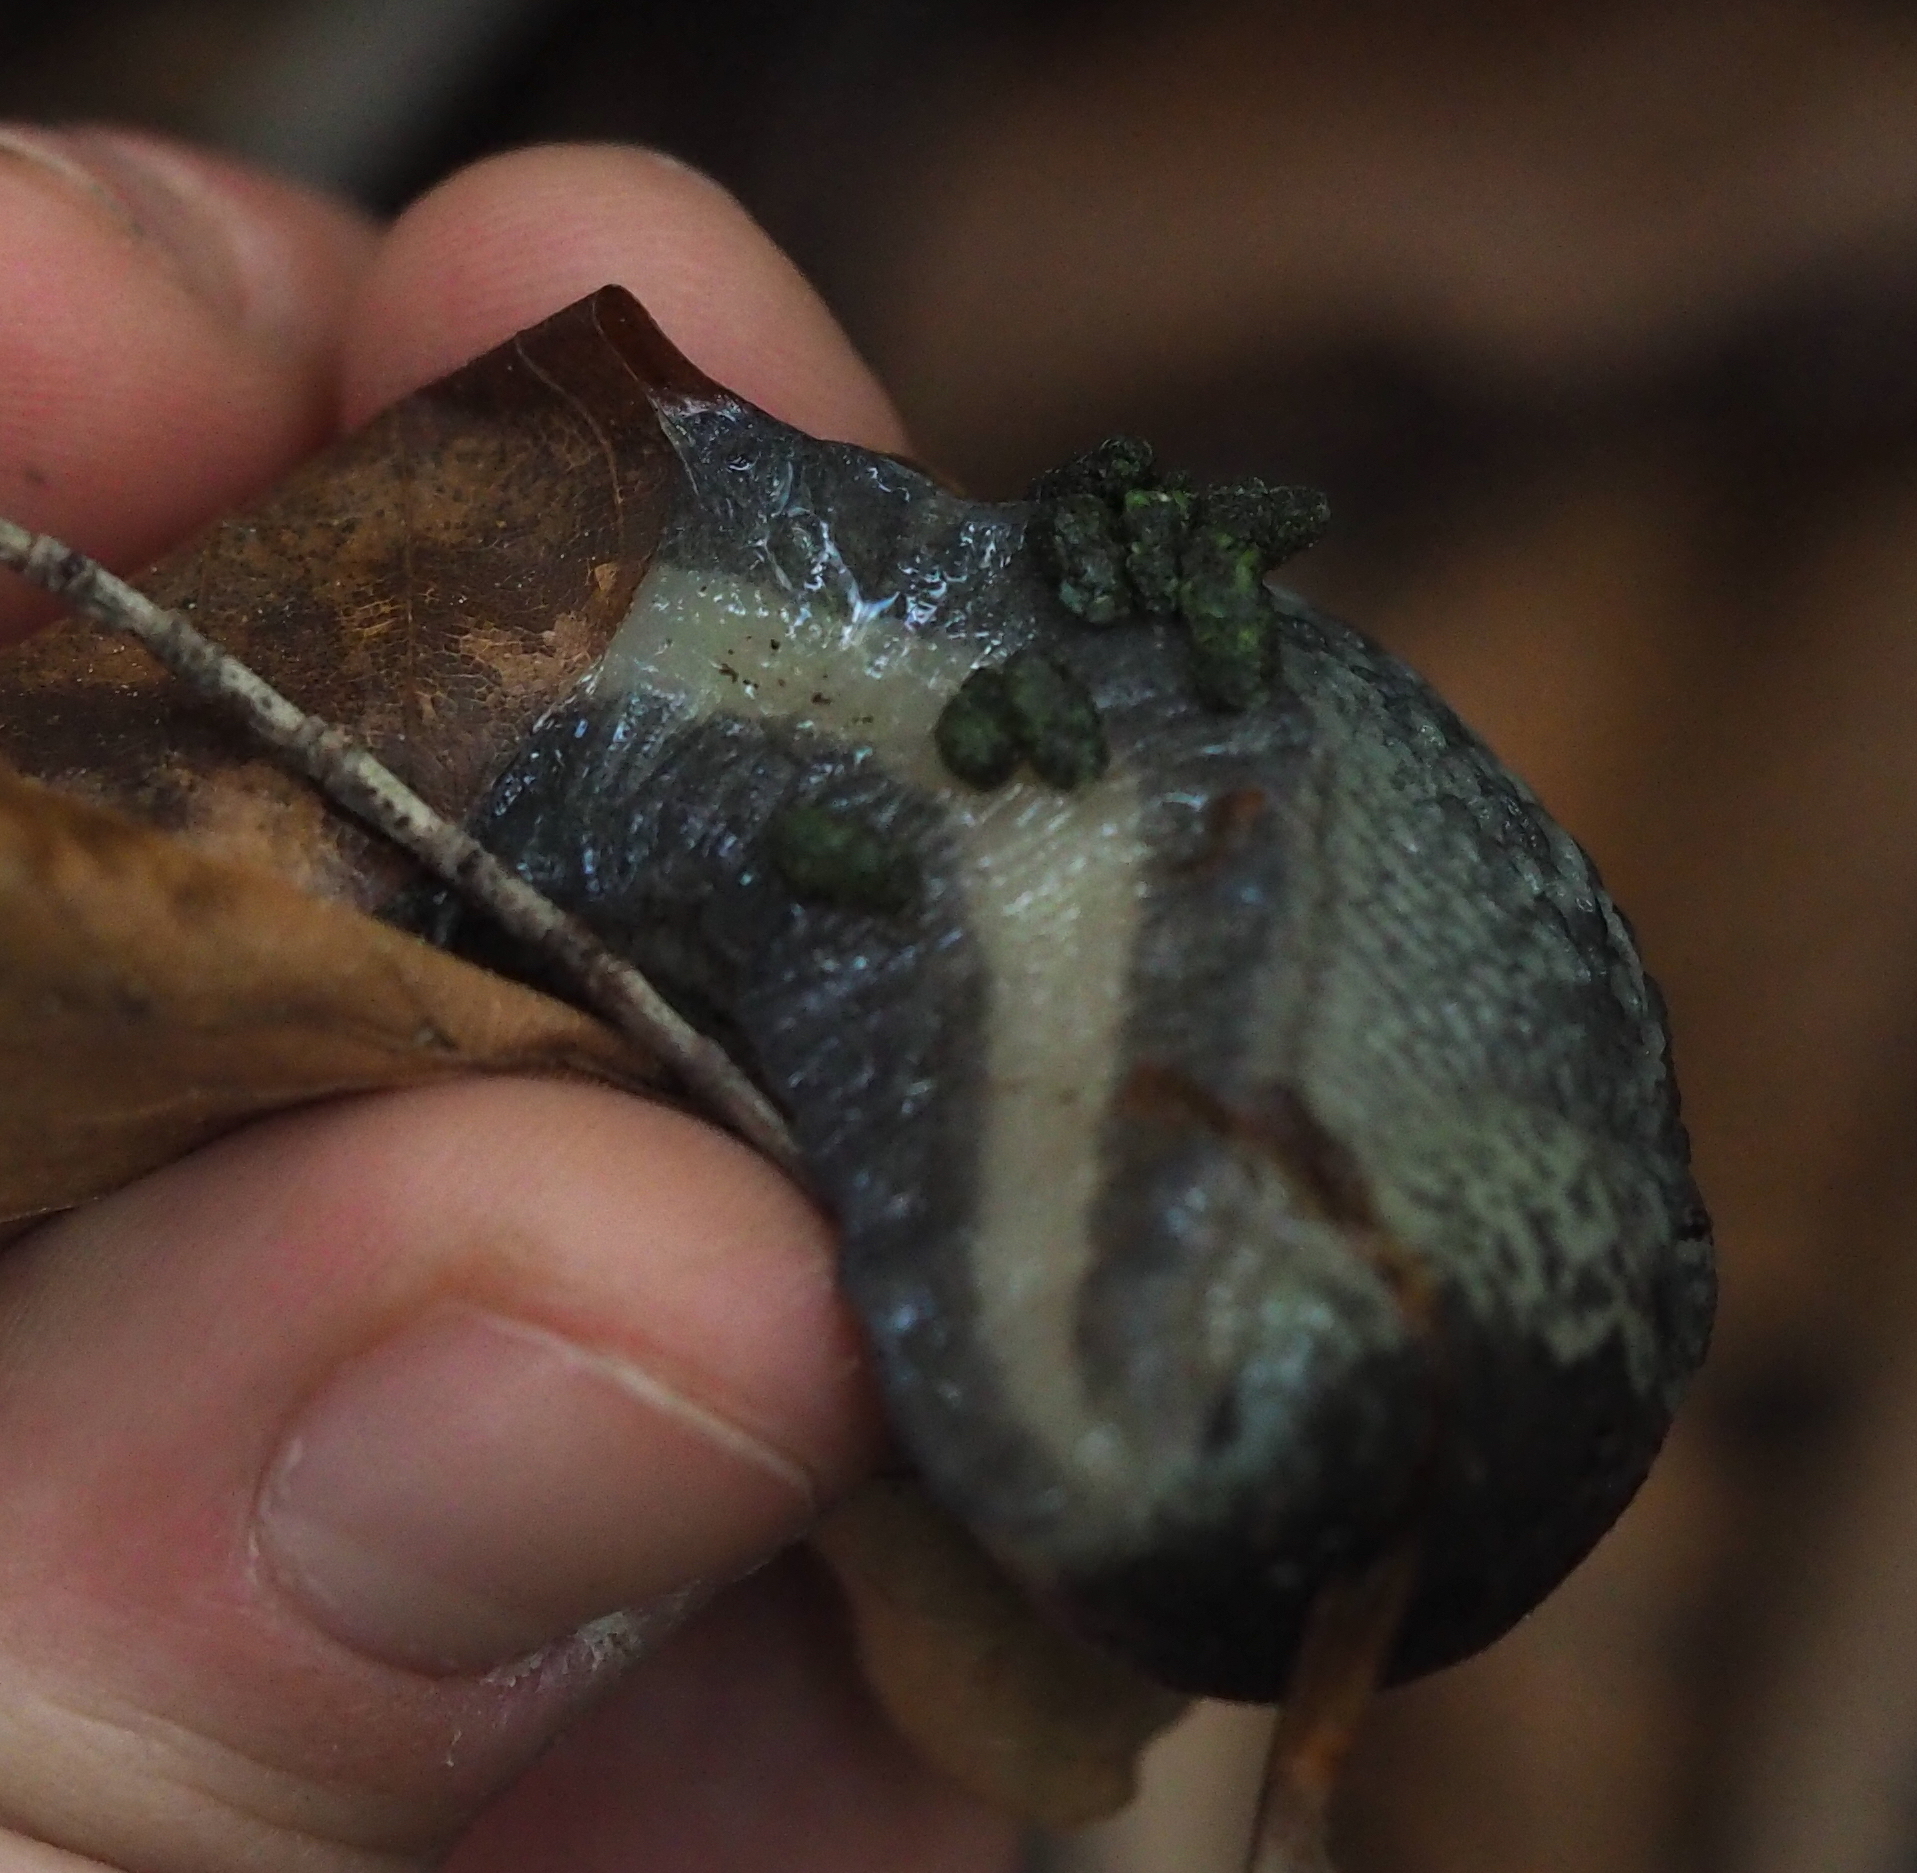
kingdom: Animalia
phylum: Mollusca
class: Gastropoda
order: Stylommatophora
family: Limacidae
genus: Limax
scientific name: Limax cinereoniger
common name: Ash-black slug
